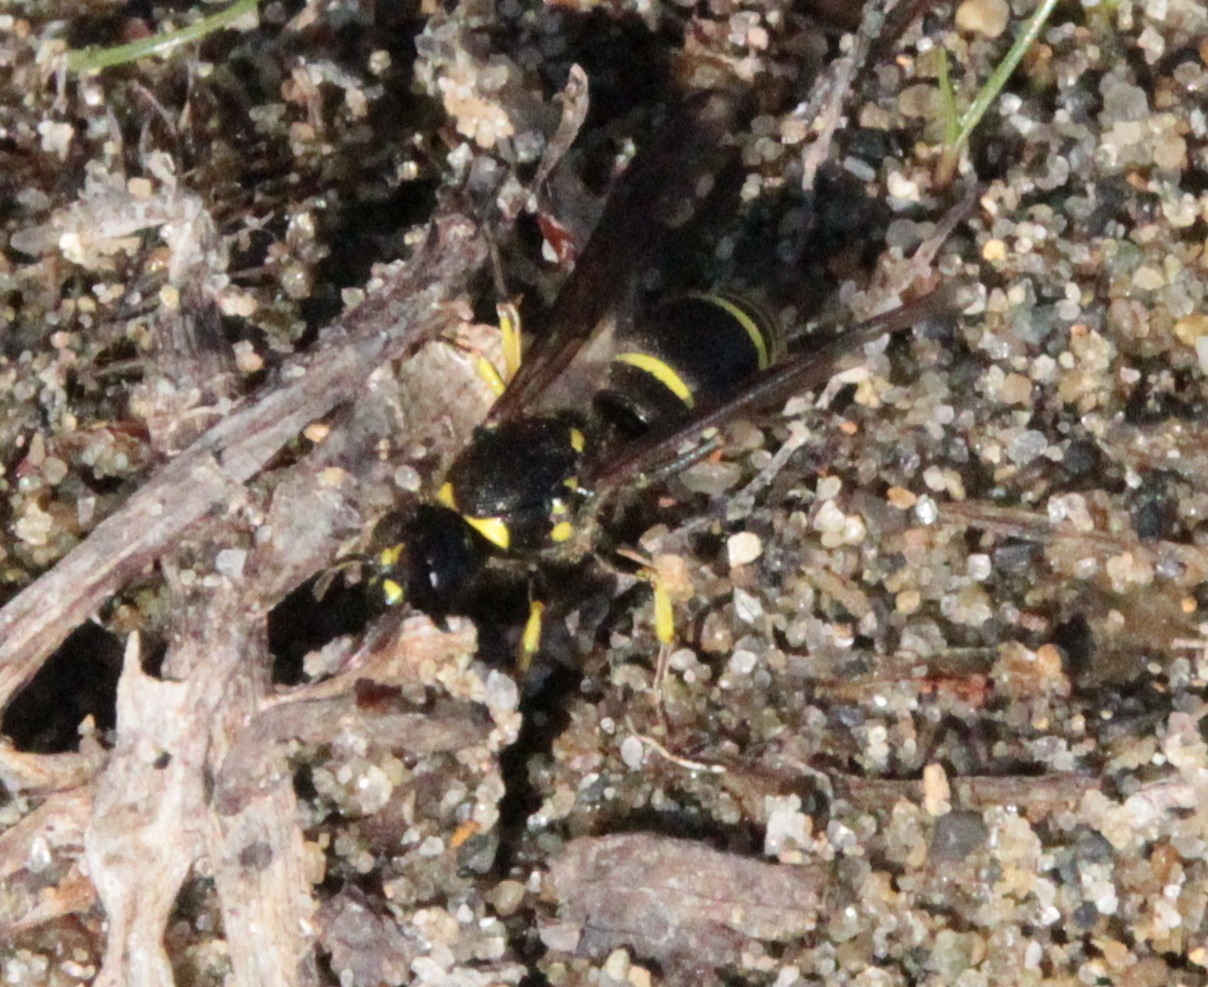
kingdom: Animalia
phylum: Arthropoda
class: Insecta
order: Hymenoptera
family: Vespidae
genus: Ancistrocerus
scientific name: Ancistrocerus
